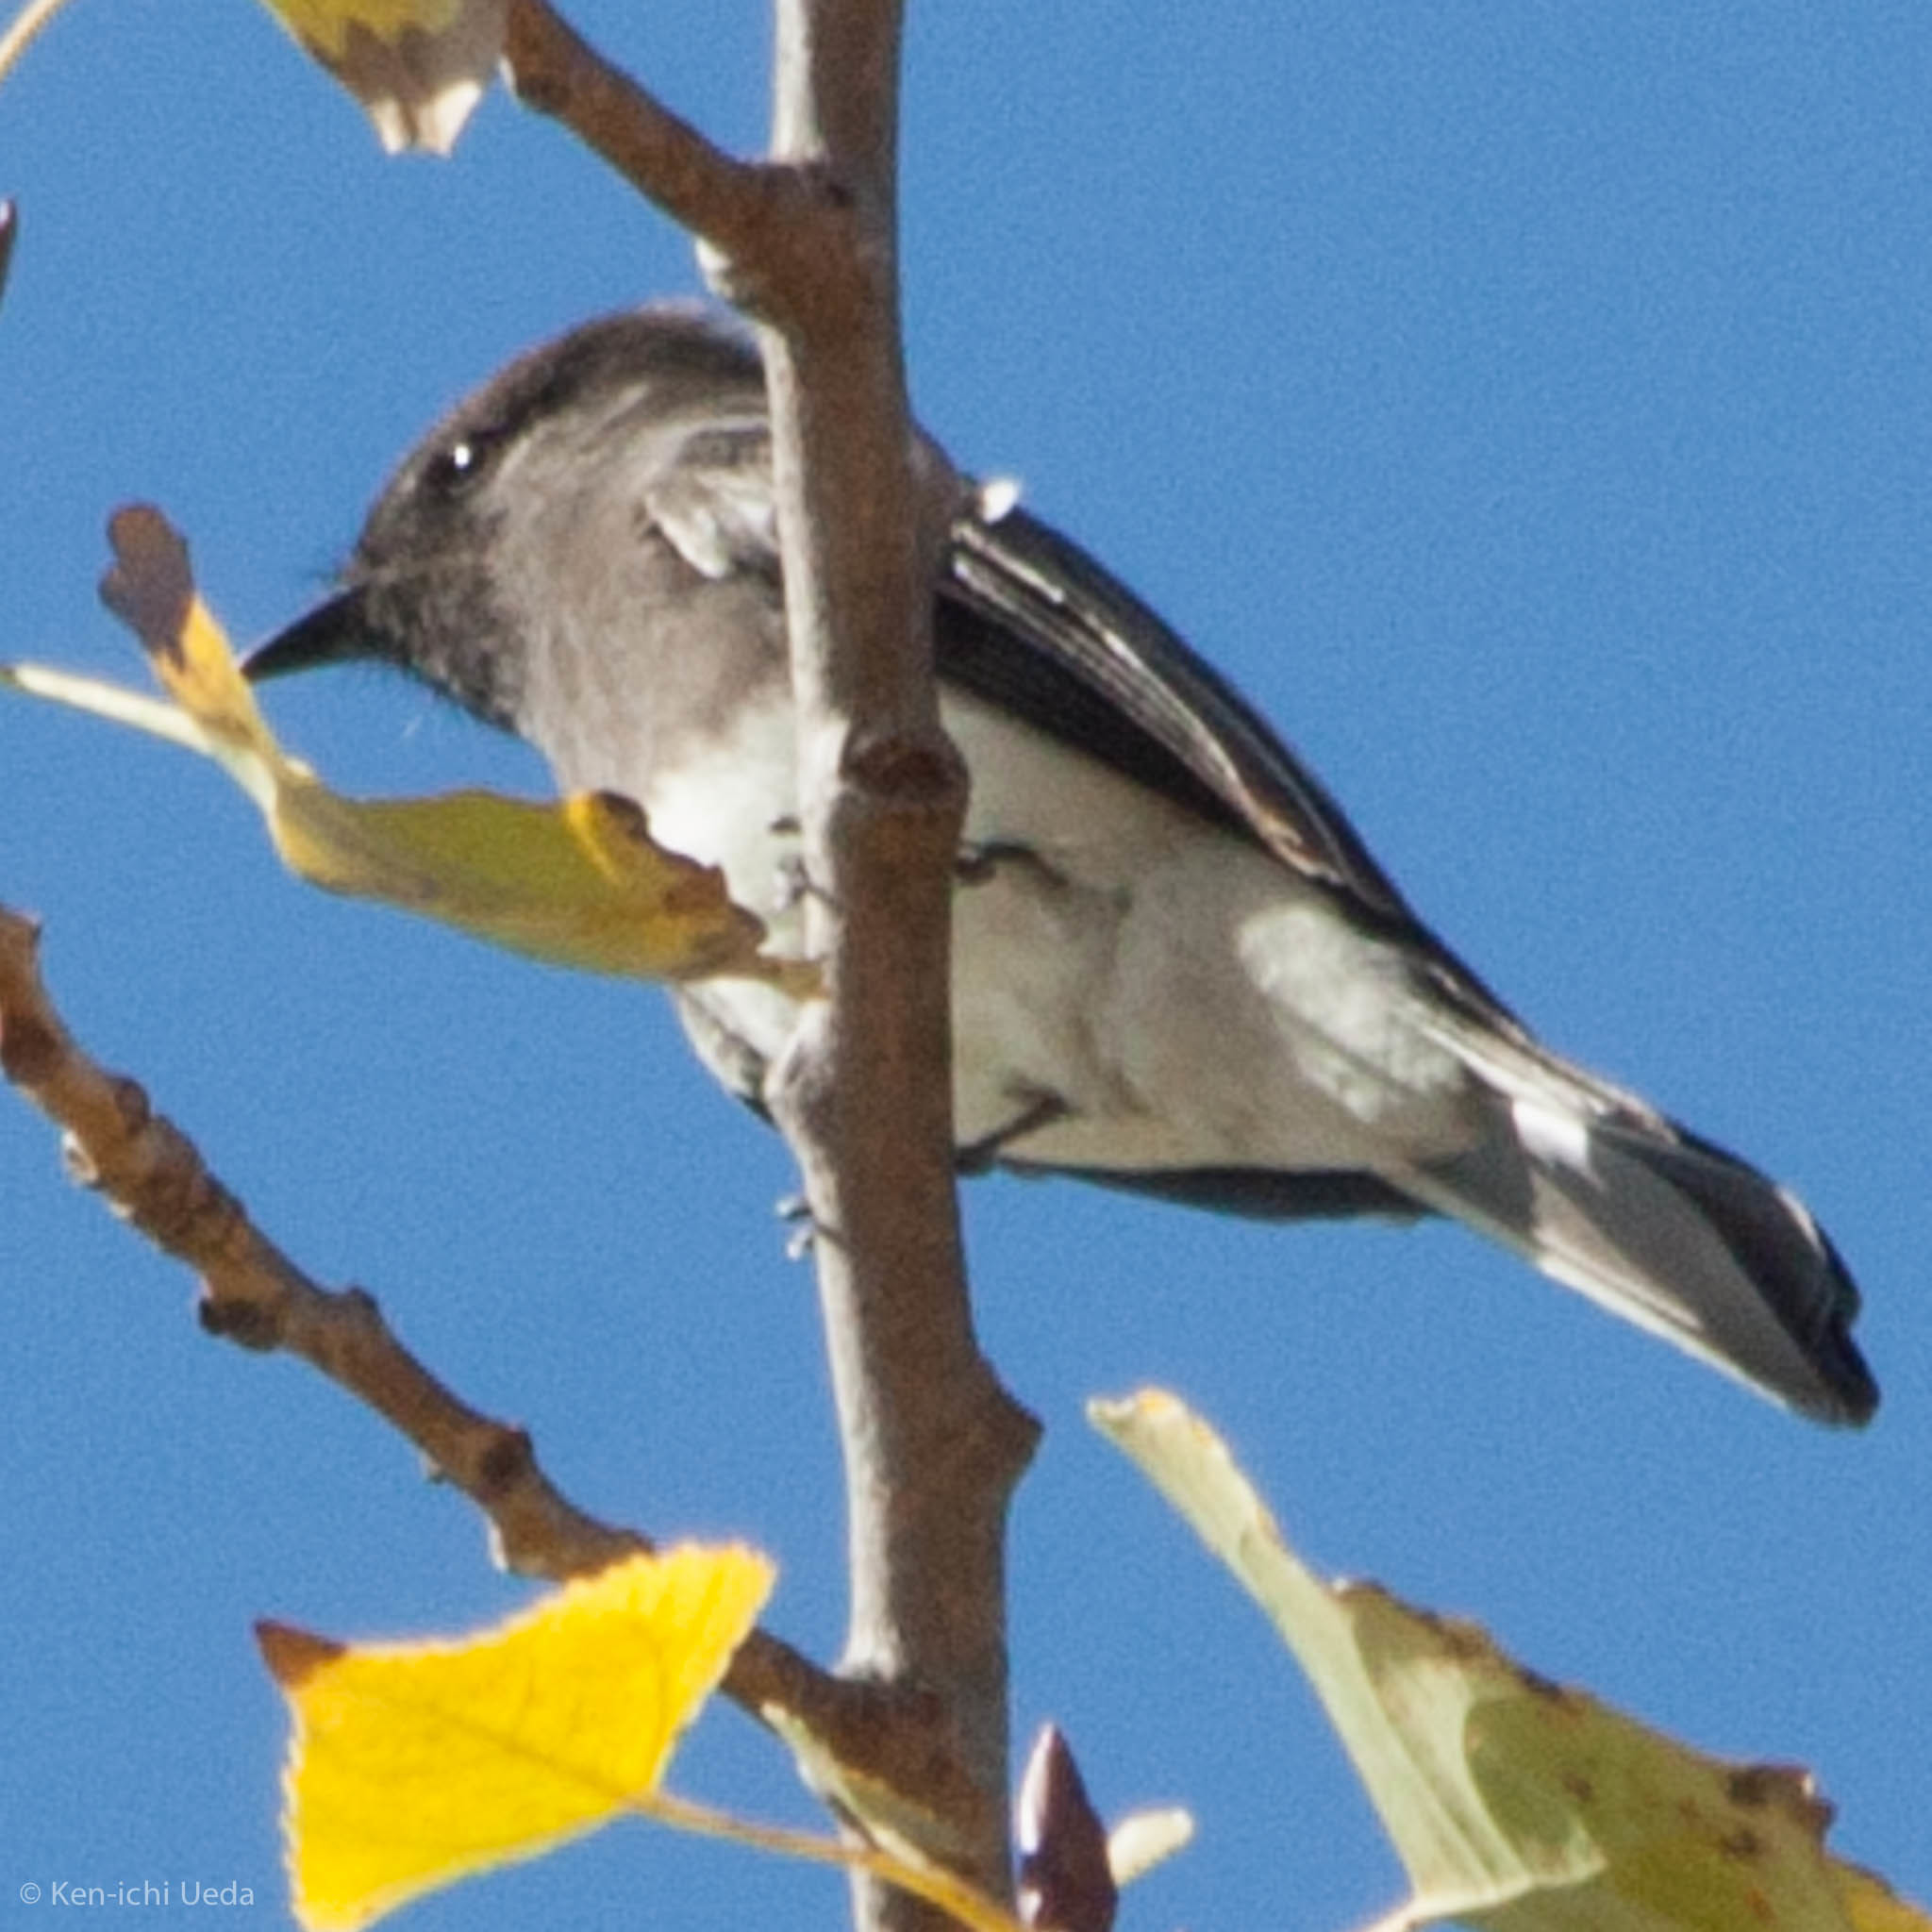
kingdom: Animalia
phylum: Chordata
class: Aves
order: Passeriformes
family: Tyrannidae
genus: Sayornis
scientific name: Sayornis nigricans
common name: Black phoebe
